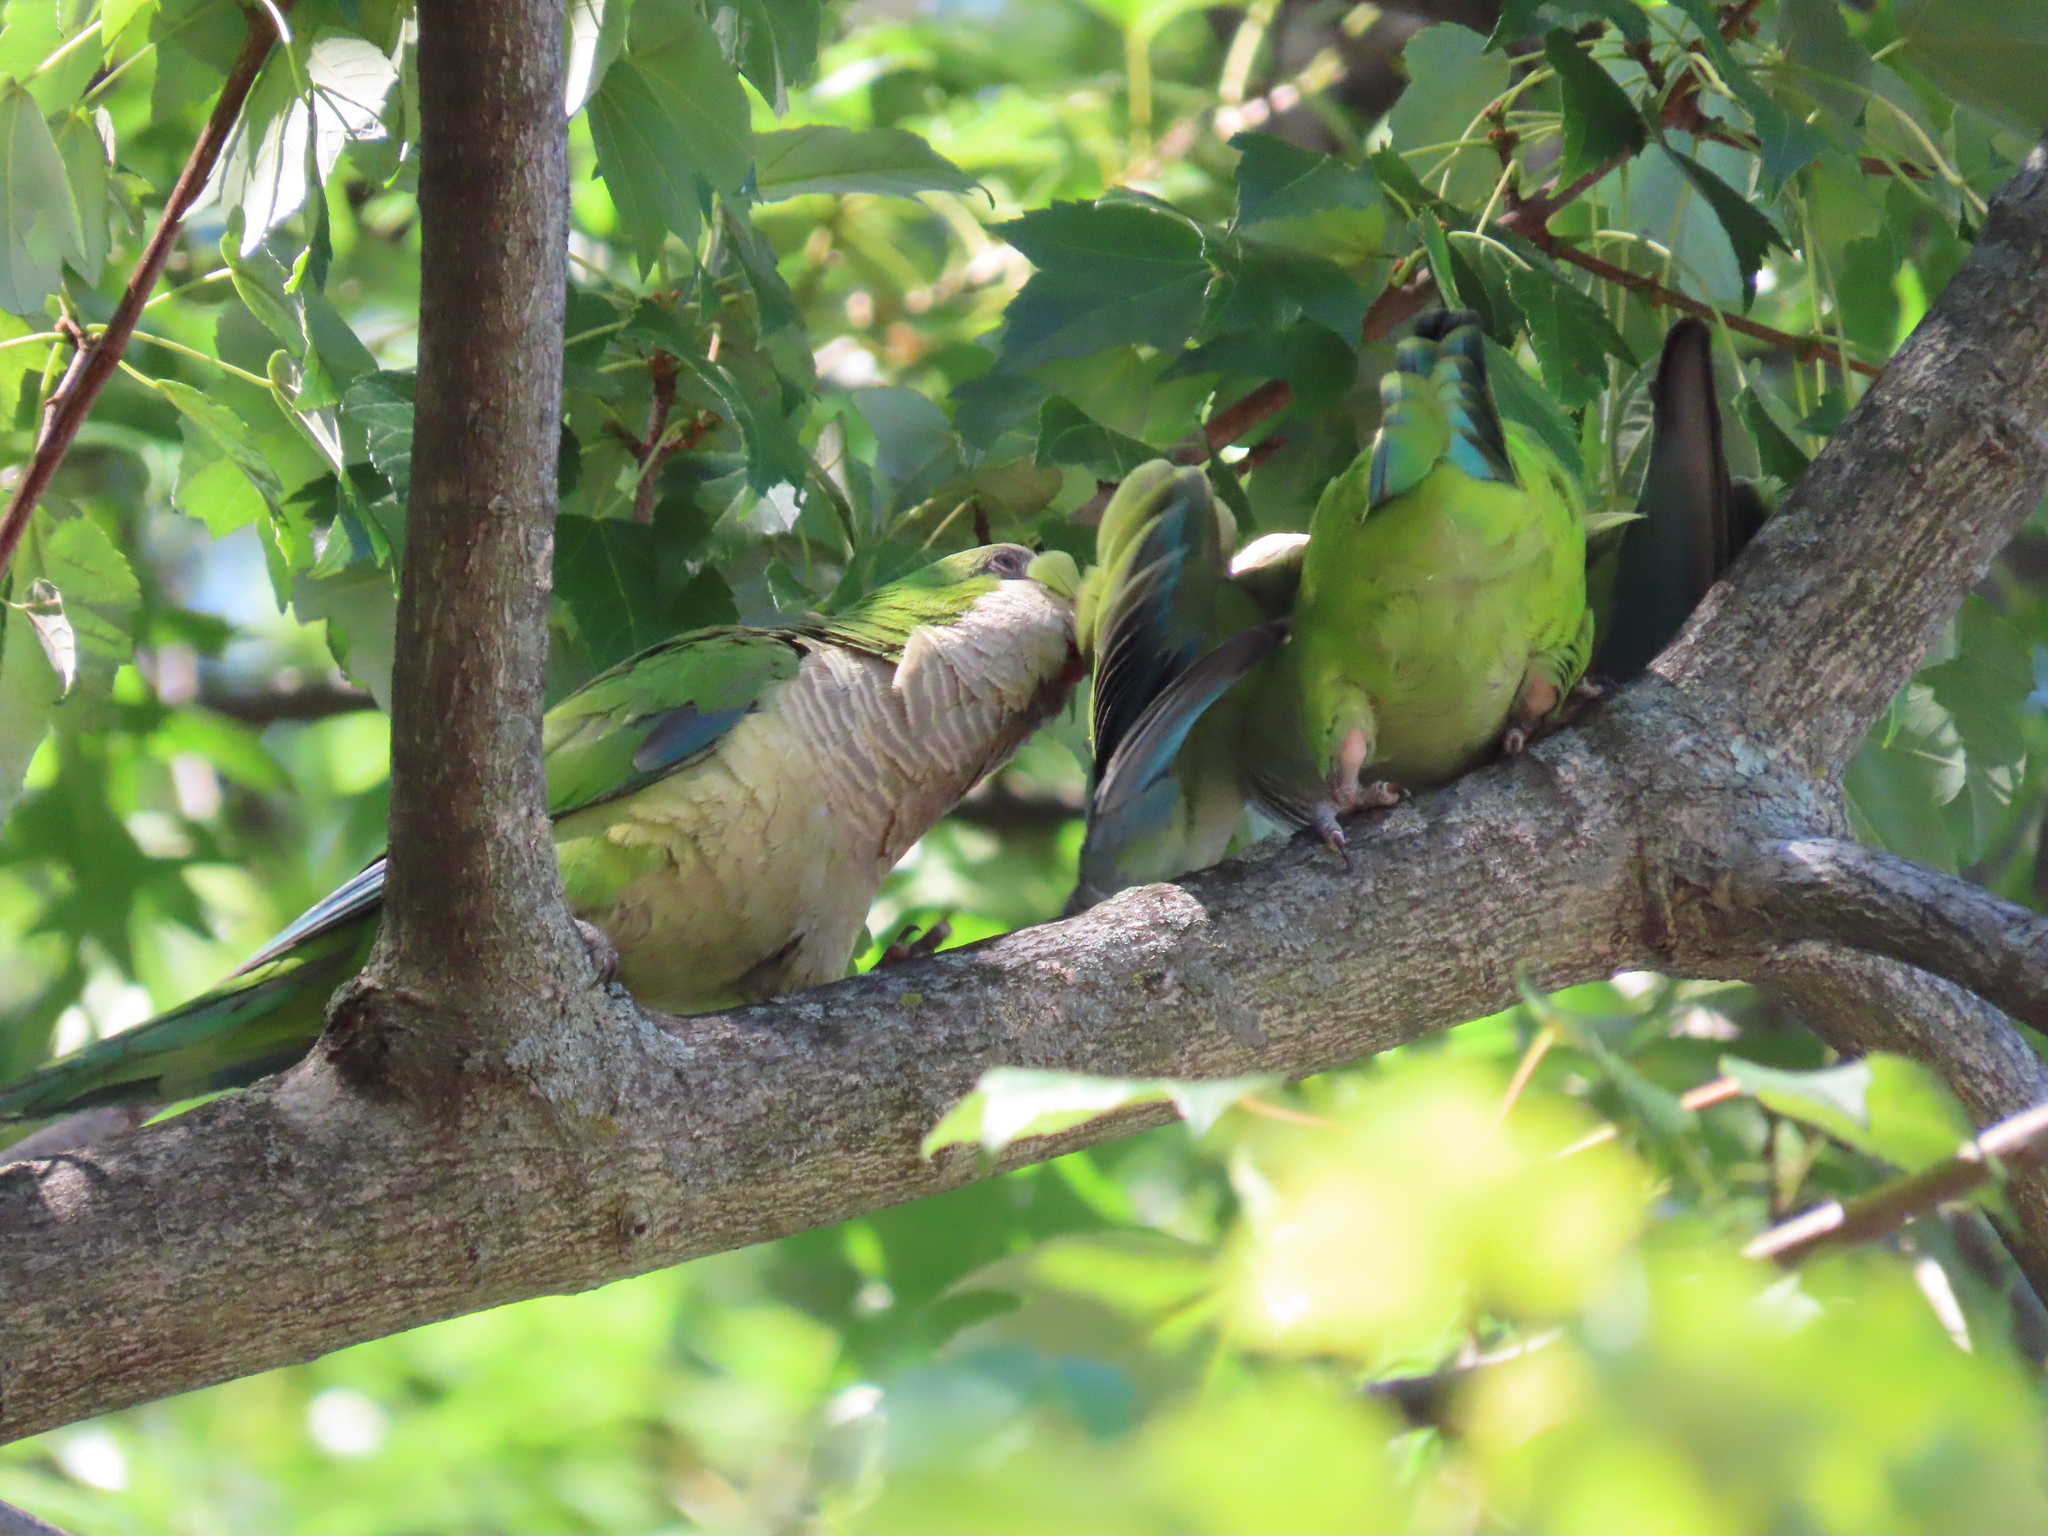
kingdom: Animalia
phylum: Chordata
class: Aves
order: Psittaciformes
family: Psittacidae
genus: Myiopsitta
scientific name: Myiopsitta monachus
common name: Monk parakeet
